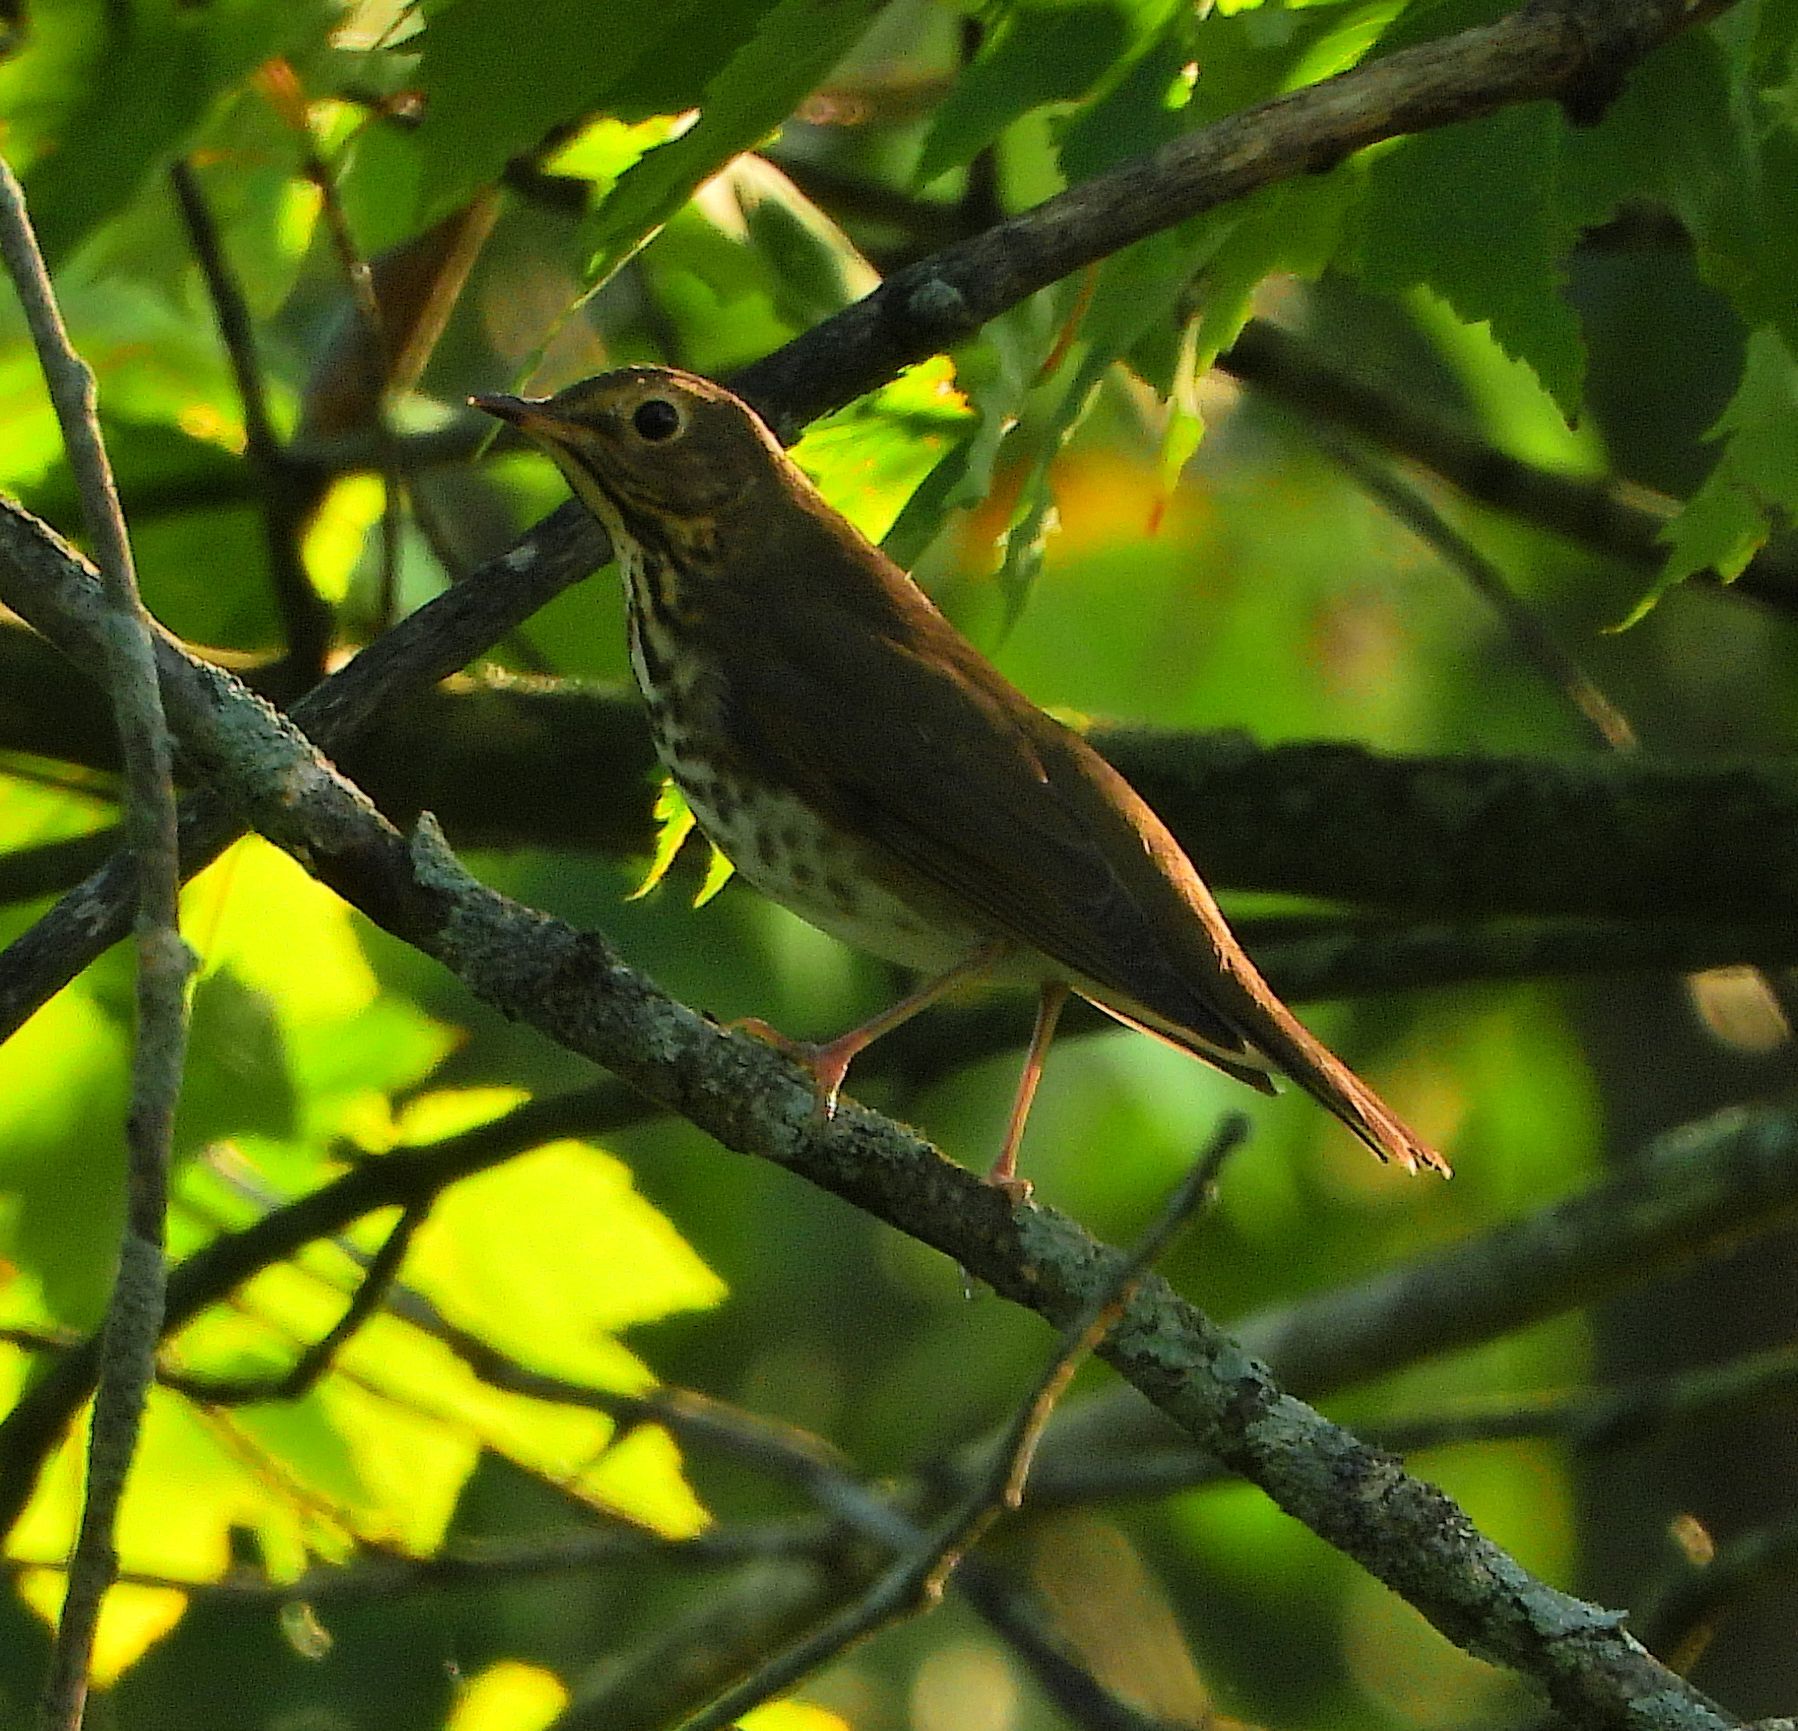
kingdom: Animalia
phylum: Chordata
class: Aves
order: Passeriformes
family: Turdidae
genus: Catharus
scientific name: Catharus ustulatus
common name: Swainson's thrush
